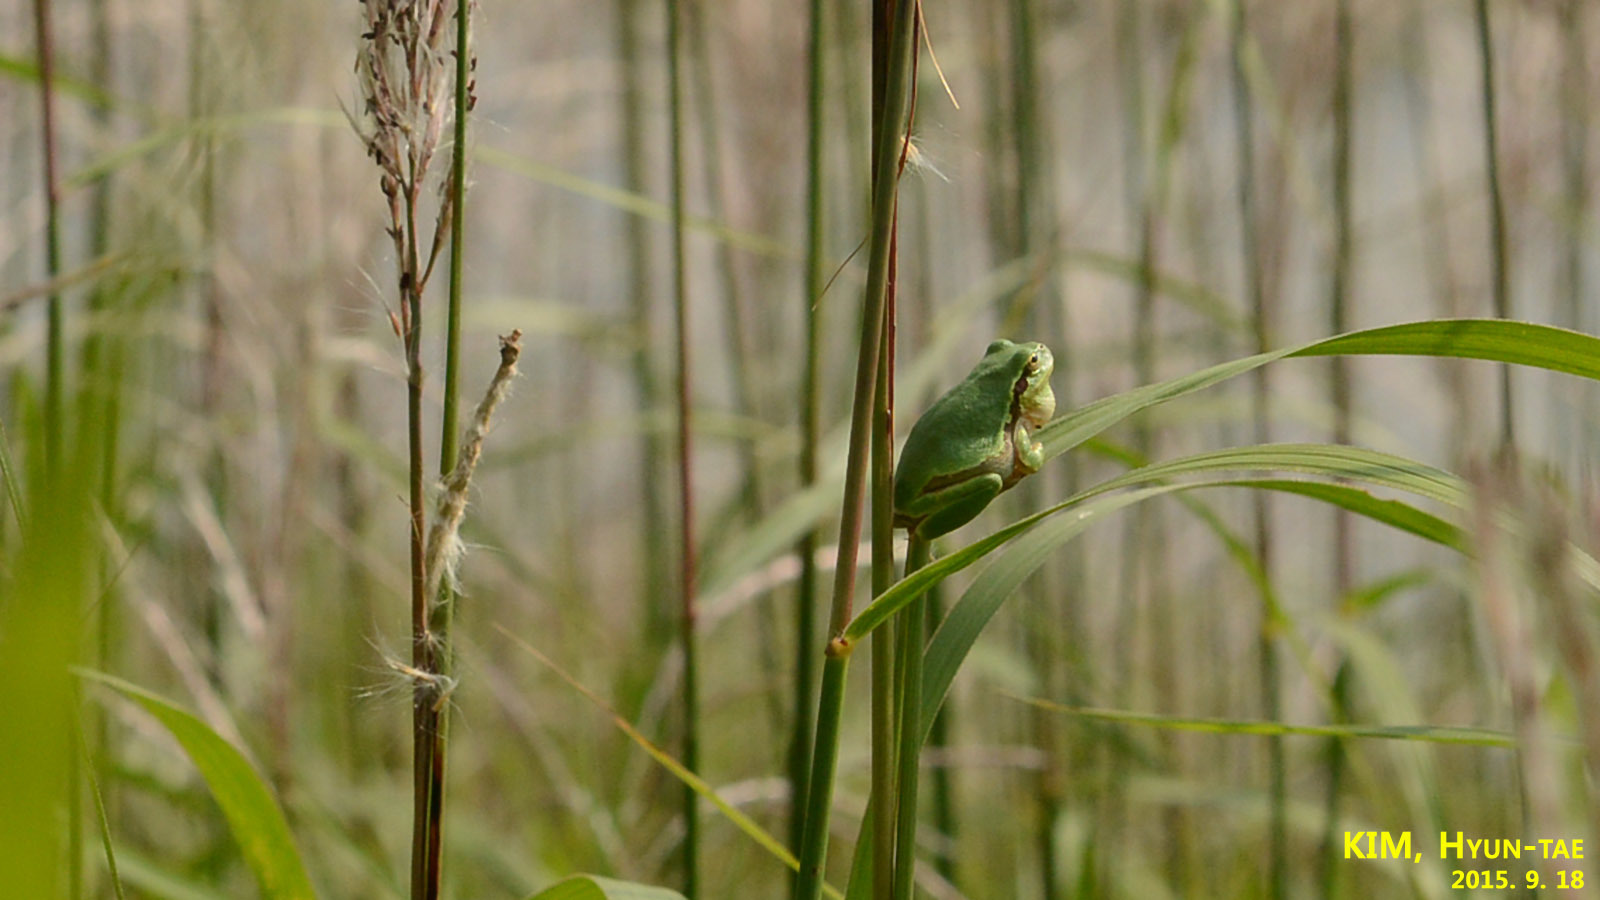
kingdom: Animalia
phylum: Chordata
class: Amphibia
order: Anura
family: Hylidae
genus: Dryophytes
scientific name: Dryophytes japonicus
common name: Japanese treefrog
